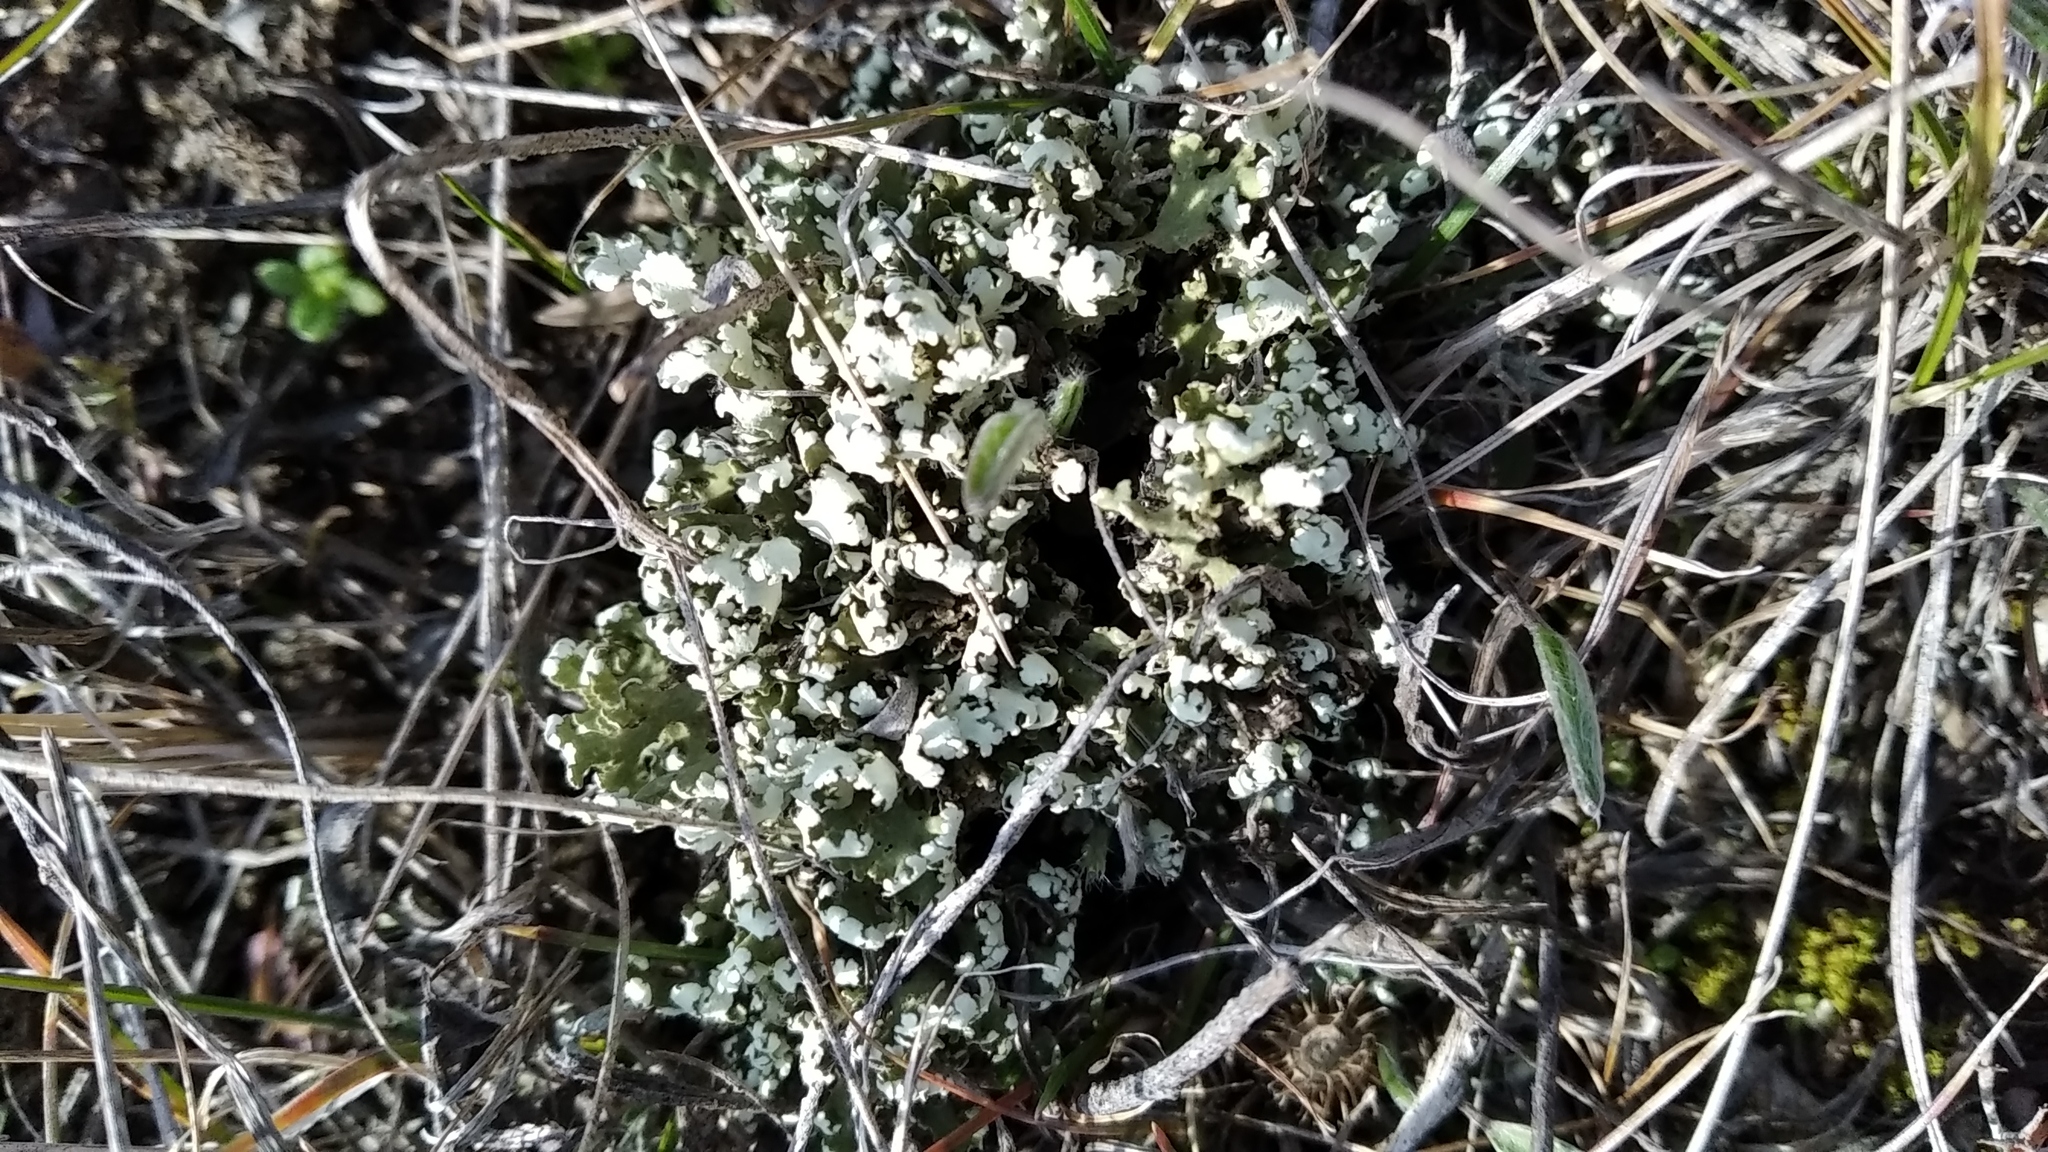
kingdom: Fungi
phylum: Ascomycota
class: Lecanoromycetes
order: Lecanorales
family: Cladoniaceae
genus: Cladonia
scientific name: Cladonia foliacea
